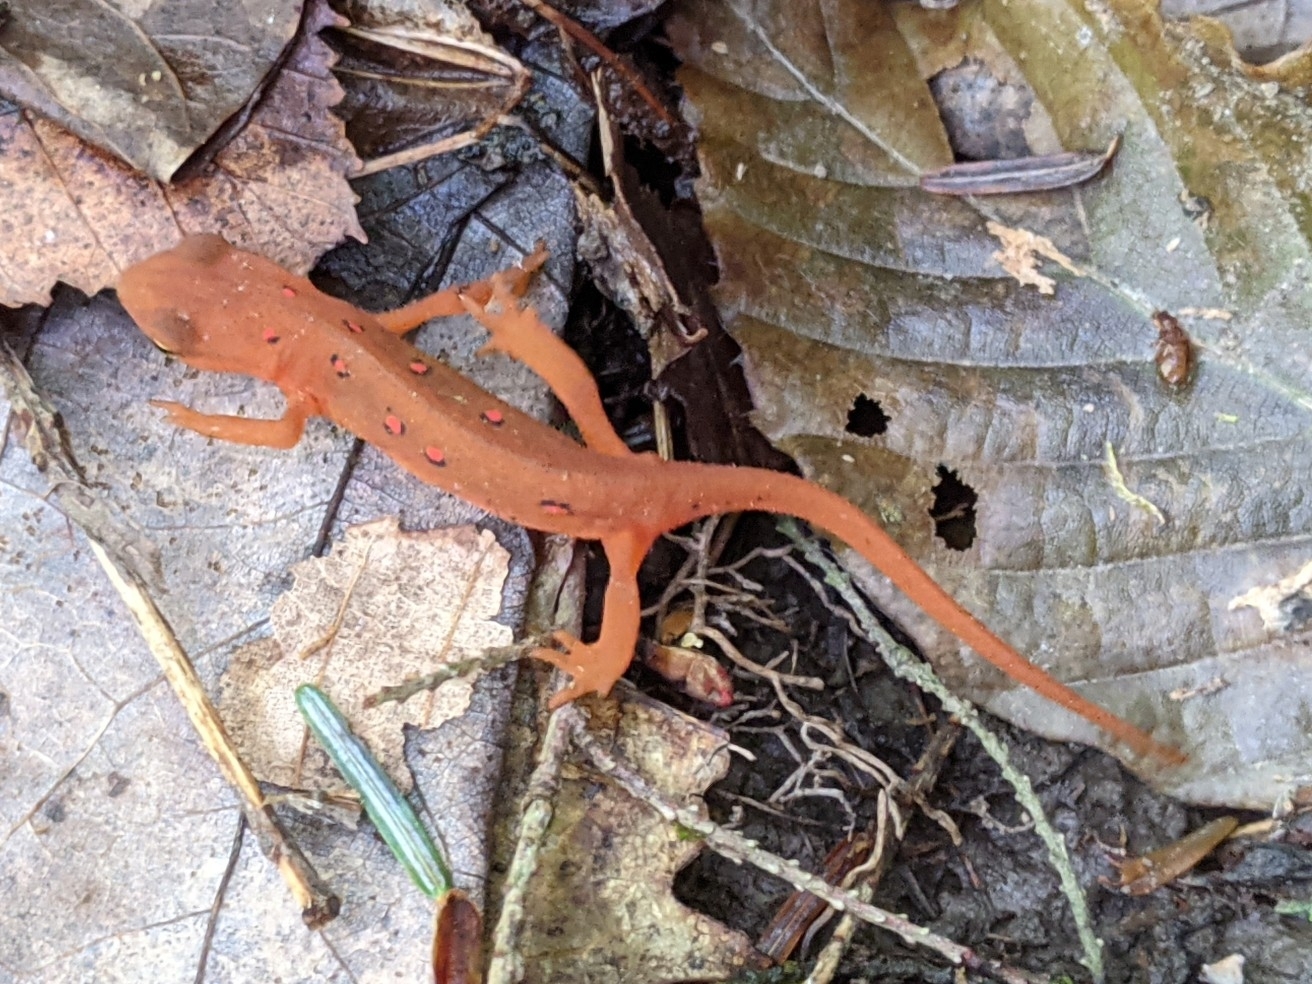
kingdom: Animalia
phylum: Chordata
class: Amphibia
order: Caudata
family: Salamandridae
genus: Notophthalmus
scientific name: Notophthalmus viridescens
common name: Eastern newt
